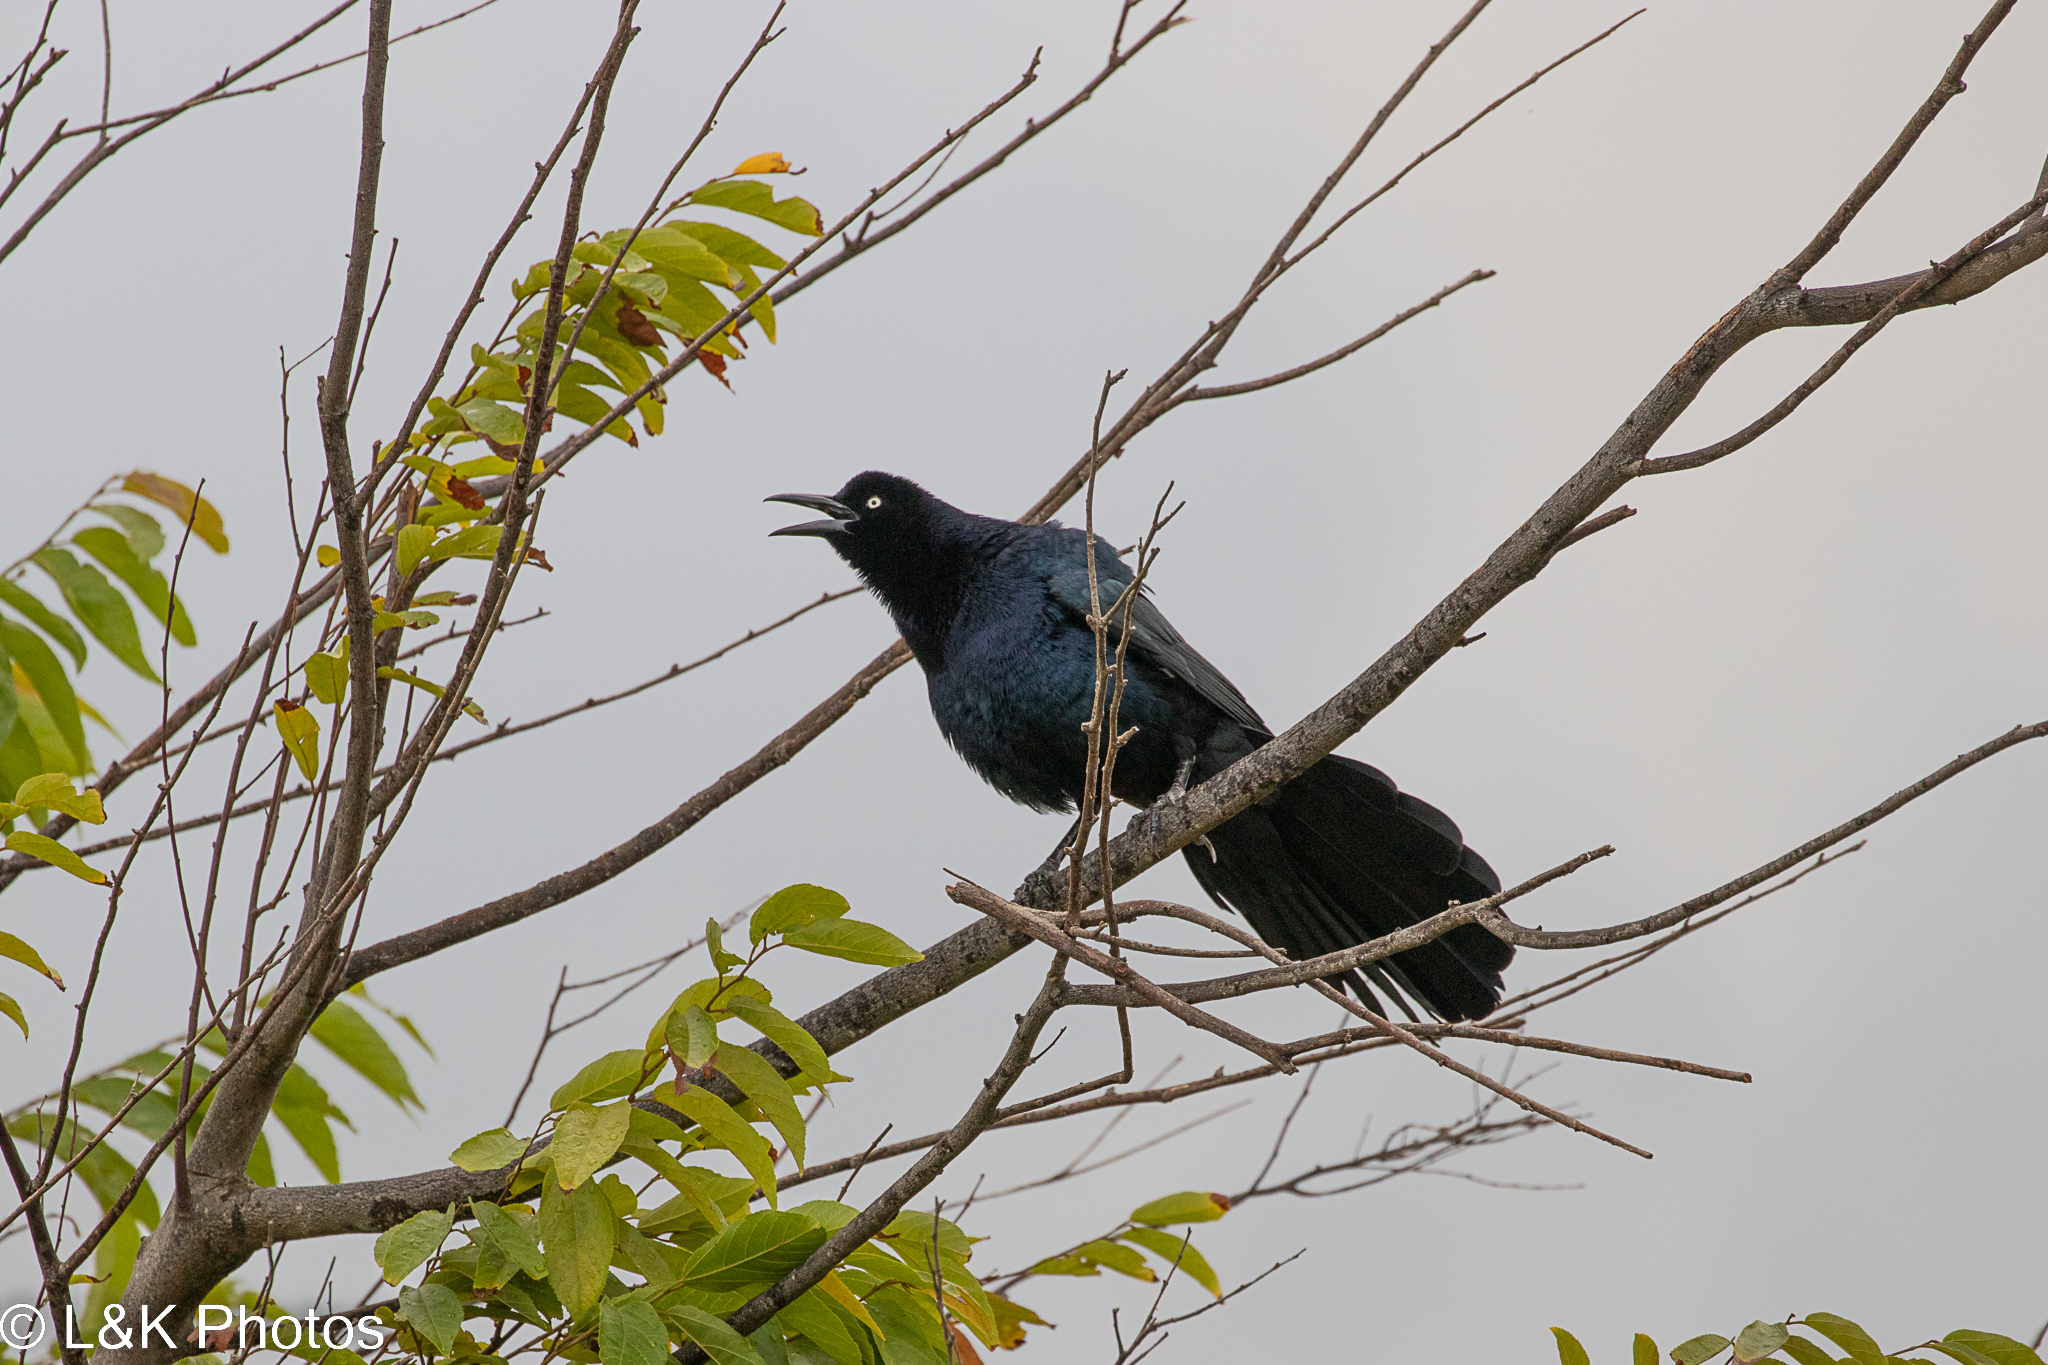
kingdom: Animalia
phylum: Chordata
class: Aves
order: Passeriformes
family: Icteridae
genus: Quiscalus
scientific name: Quiscalus mexicanus
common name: Great-tailed grackle
